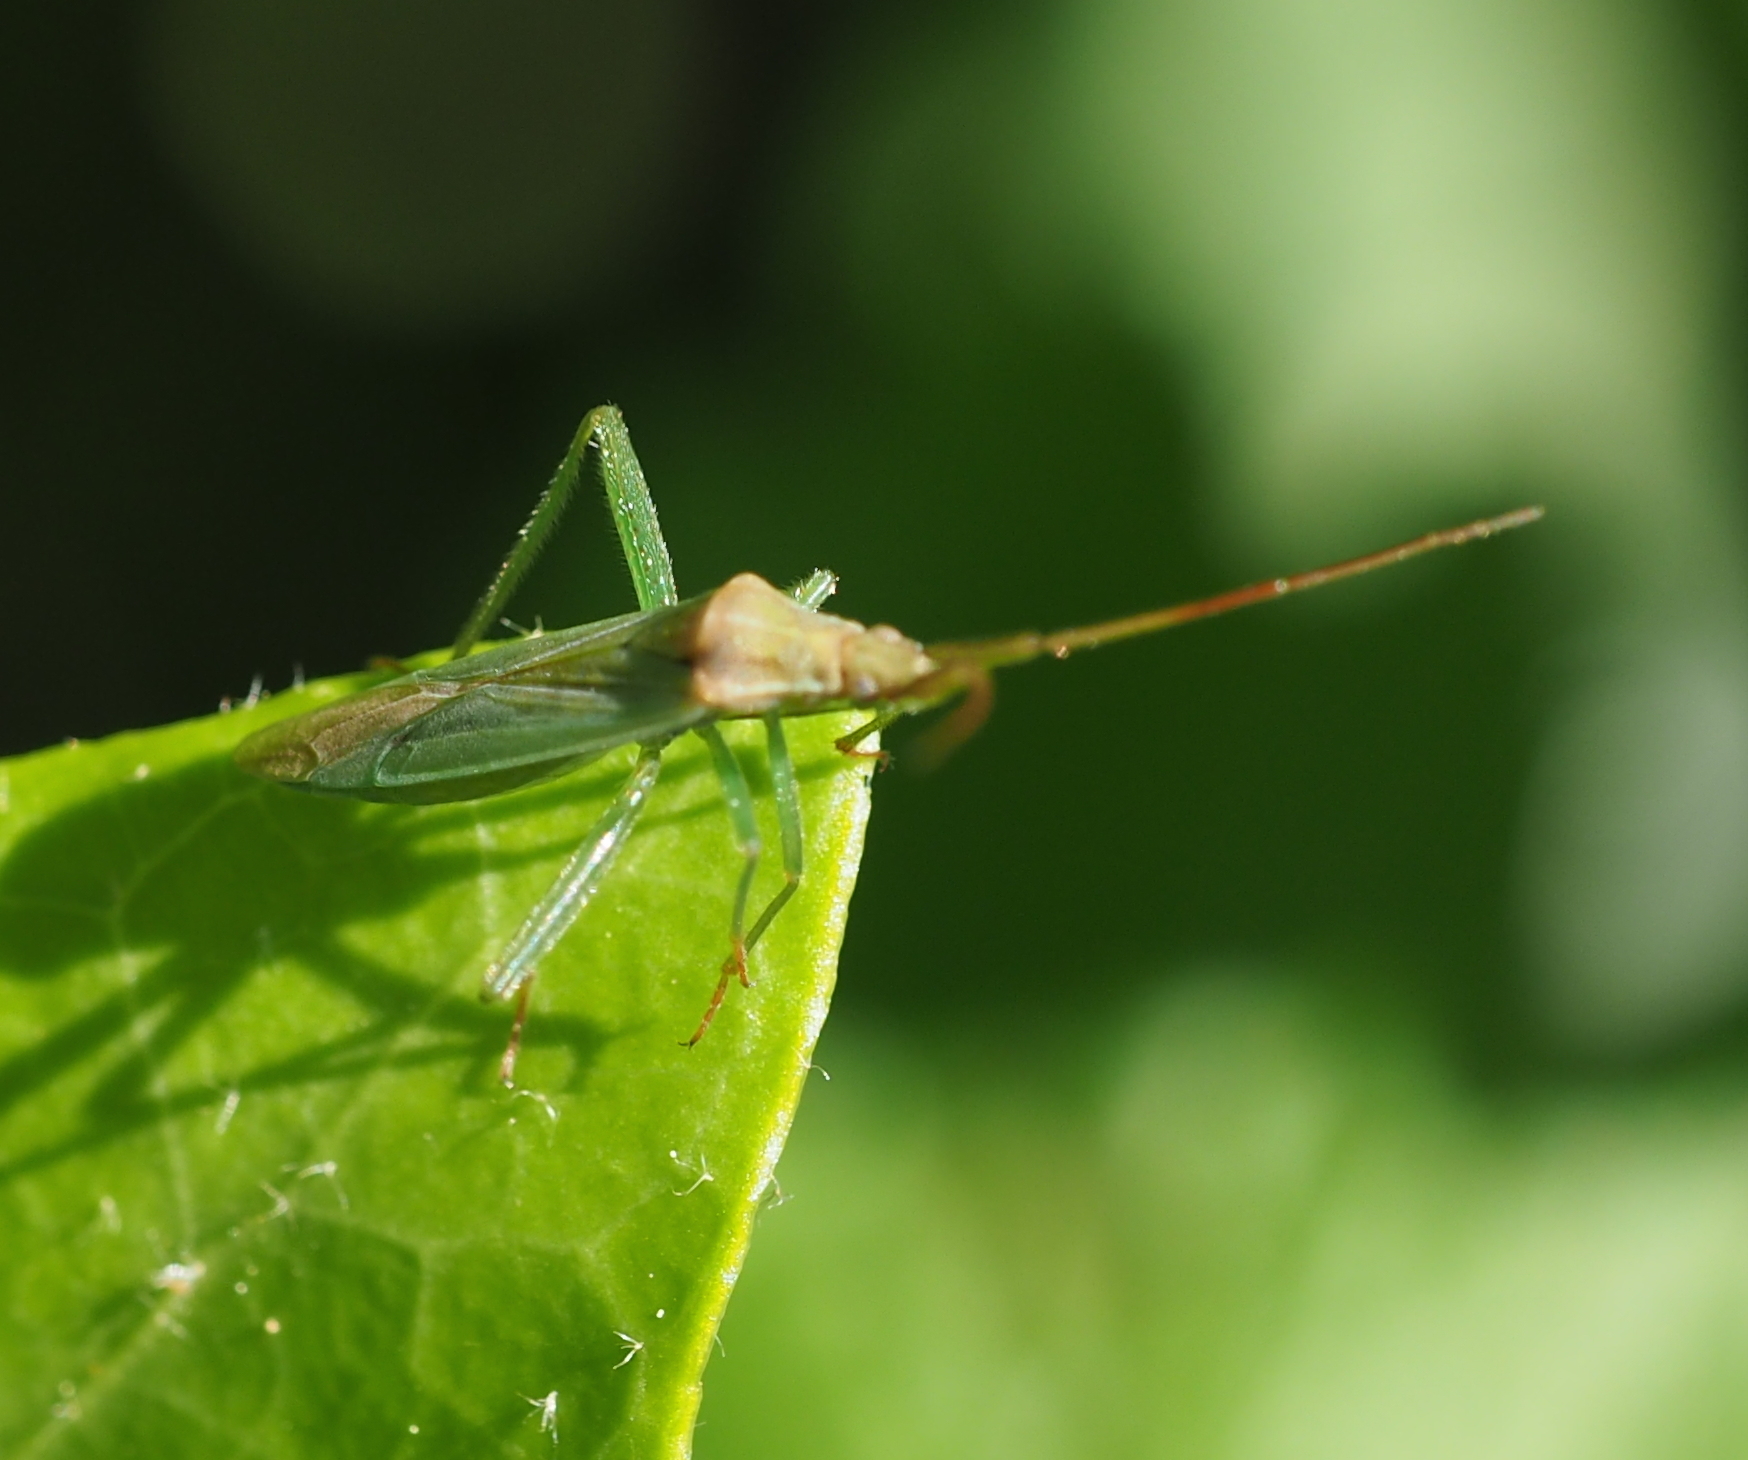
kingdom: Animalia
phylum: Arthropoda
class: Insecta
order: Hemiptera
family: Miridae
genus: Stenodema
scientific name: Stenodema laevigata
